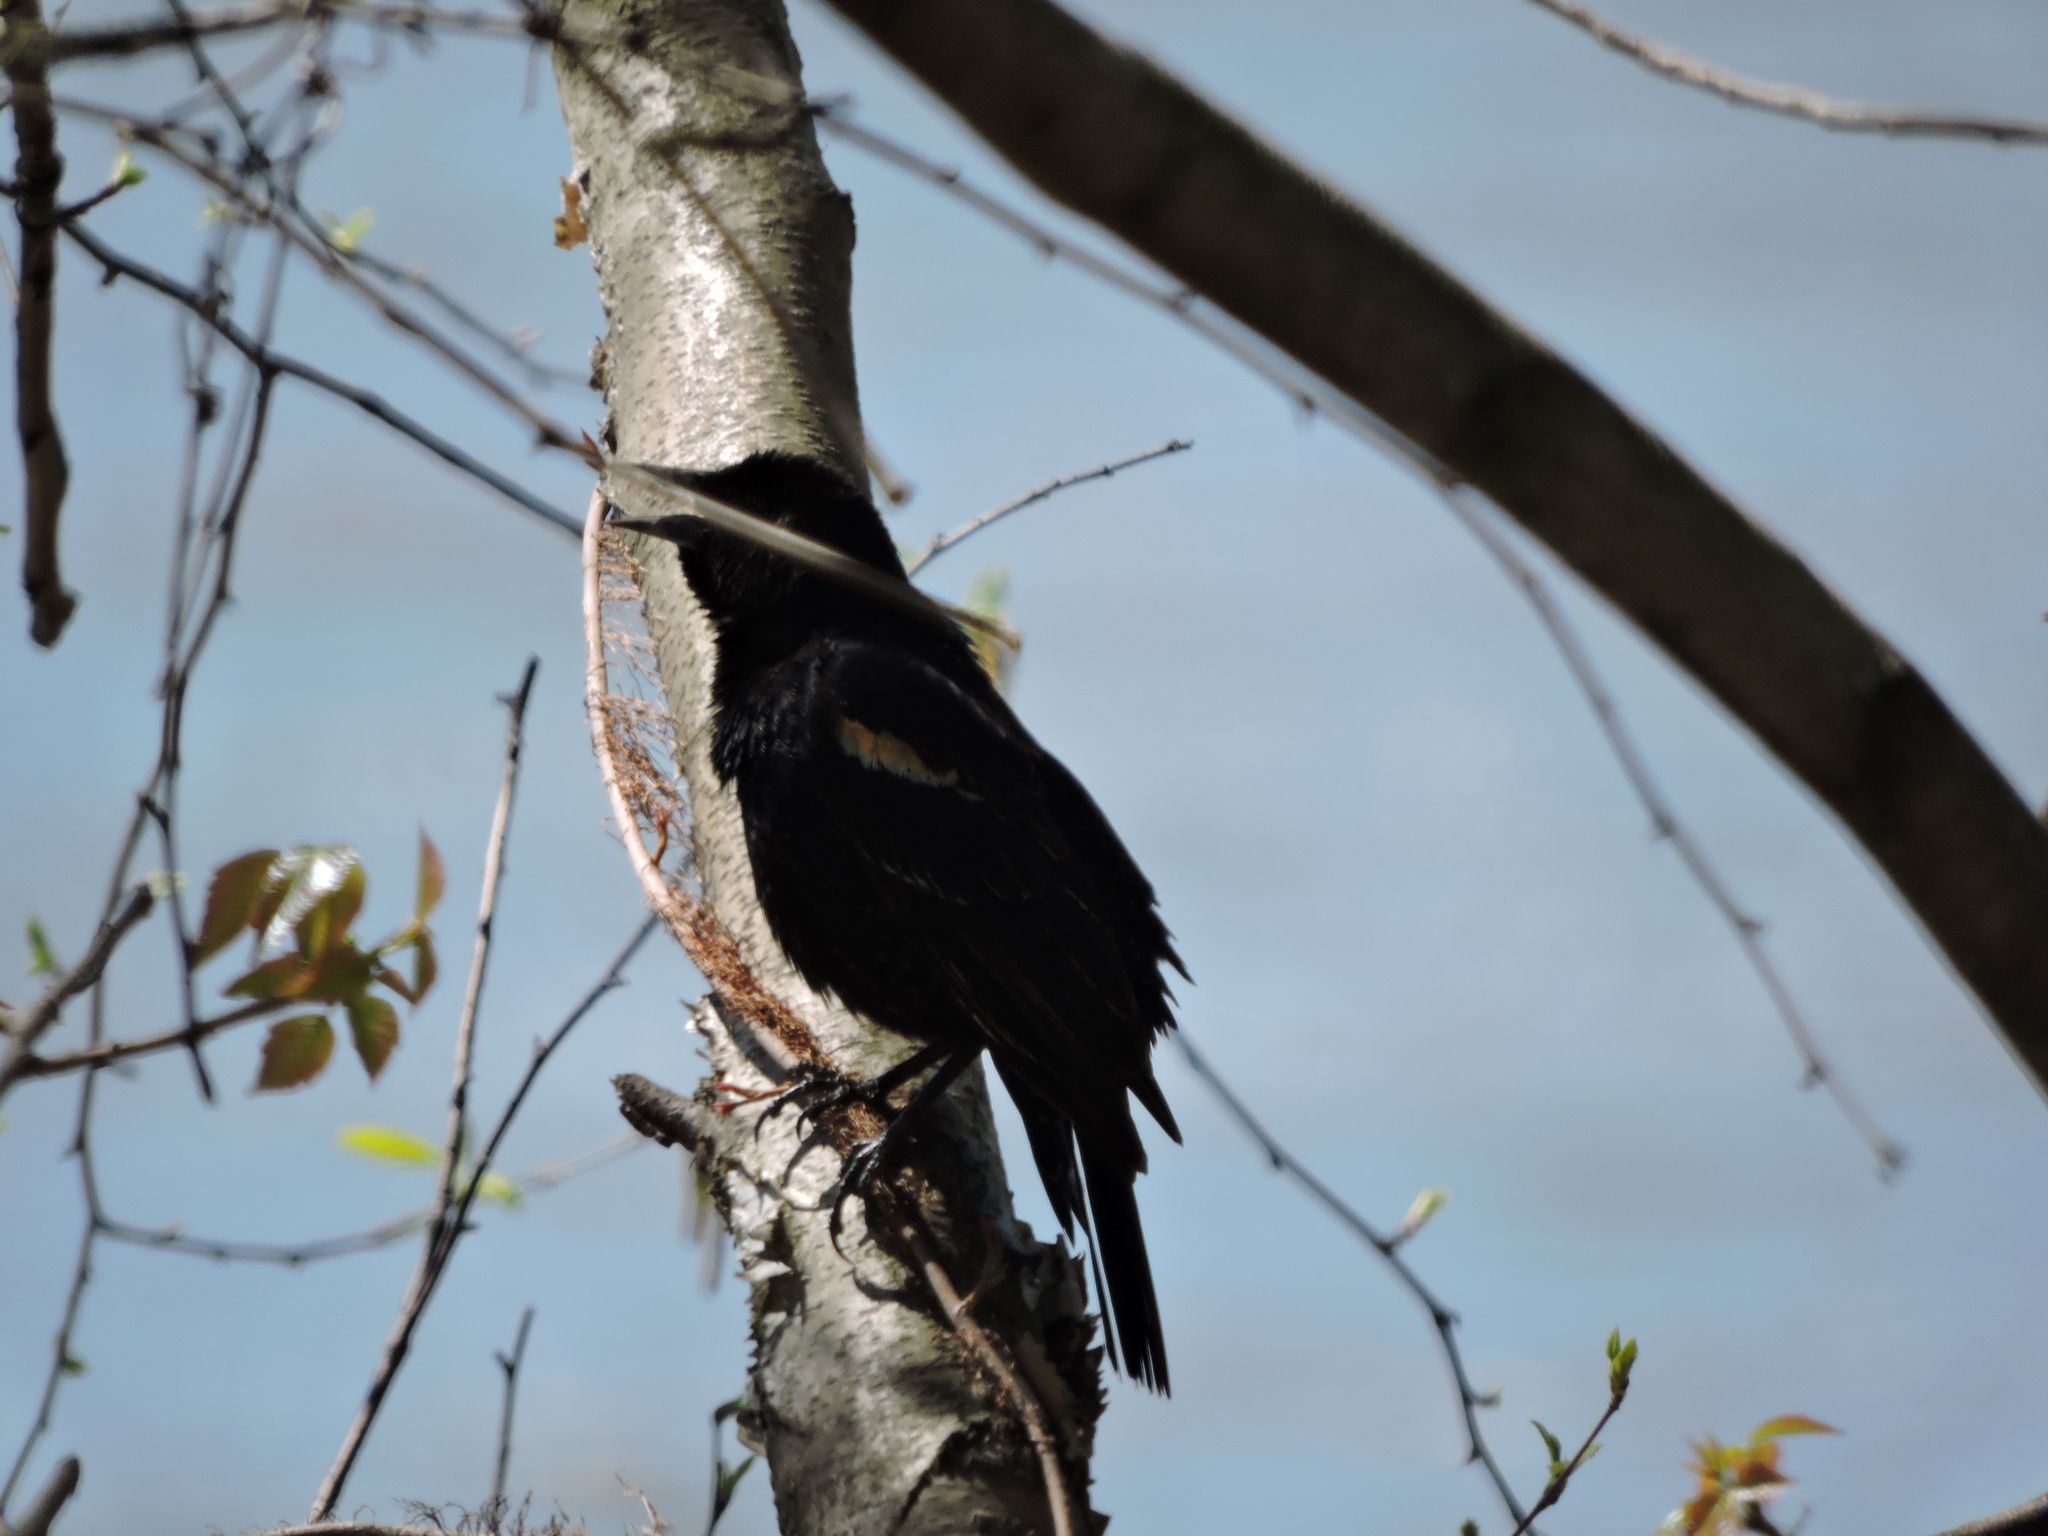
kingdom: Animalia
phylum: Chordata
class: Aves
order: Passeriformes
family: Icteridae
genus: Agelaius
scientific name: Agelaius phoeniceus
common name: Red-winged blackbird
